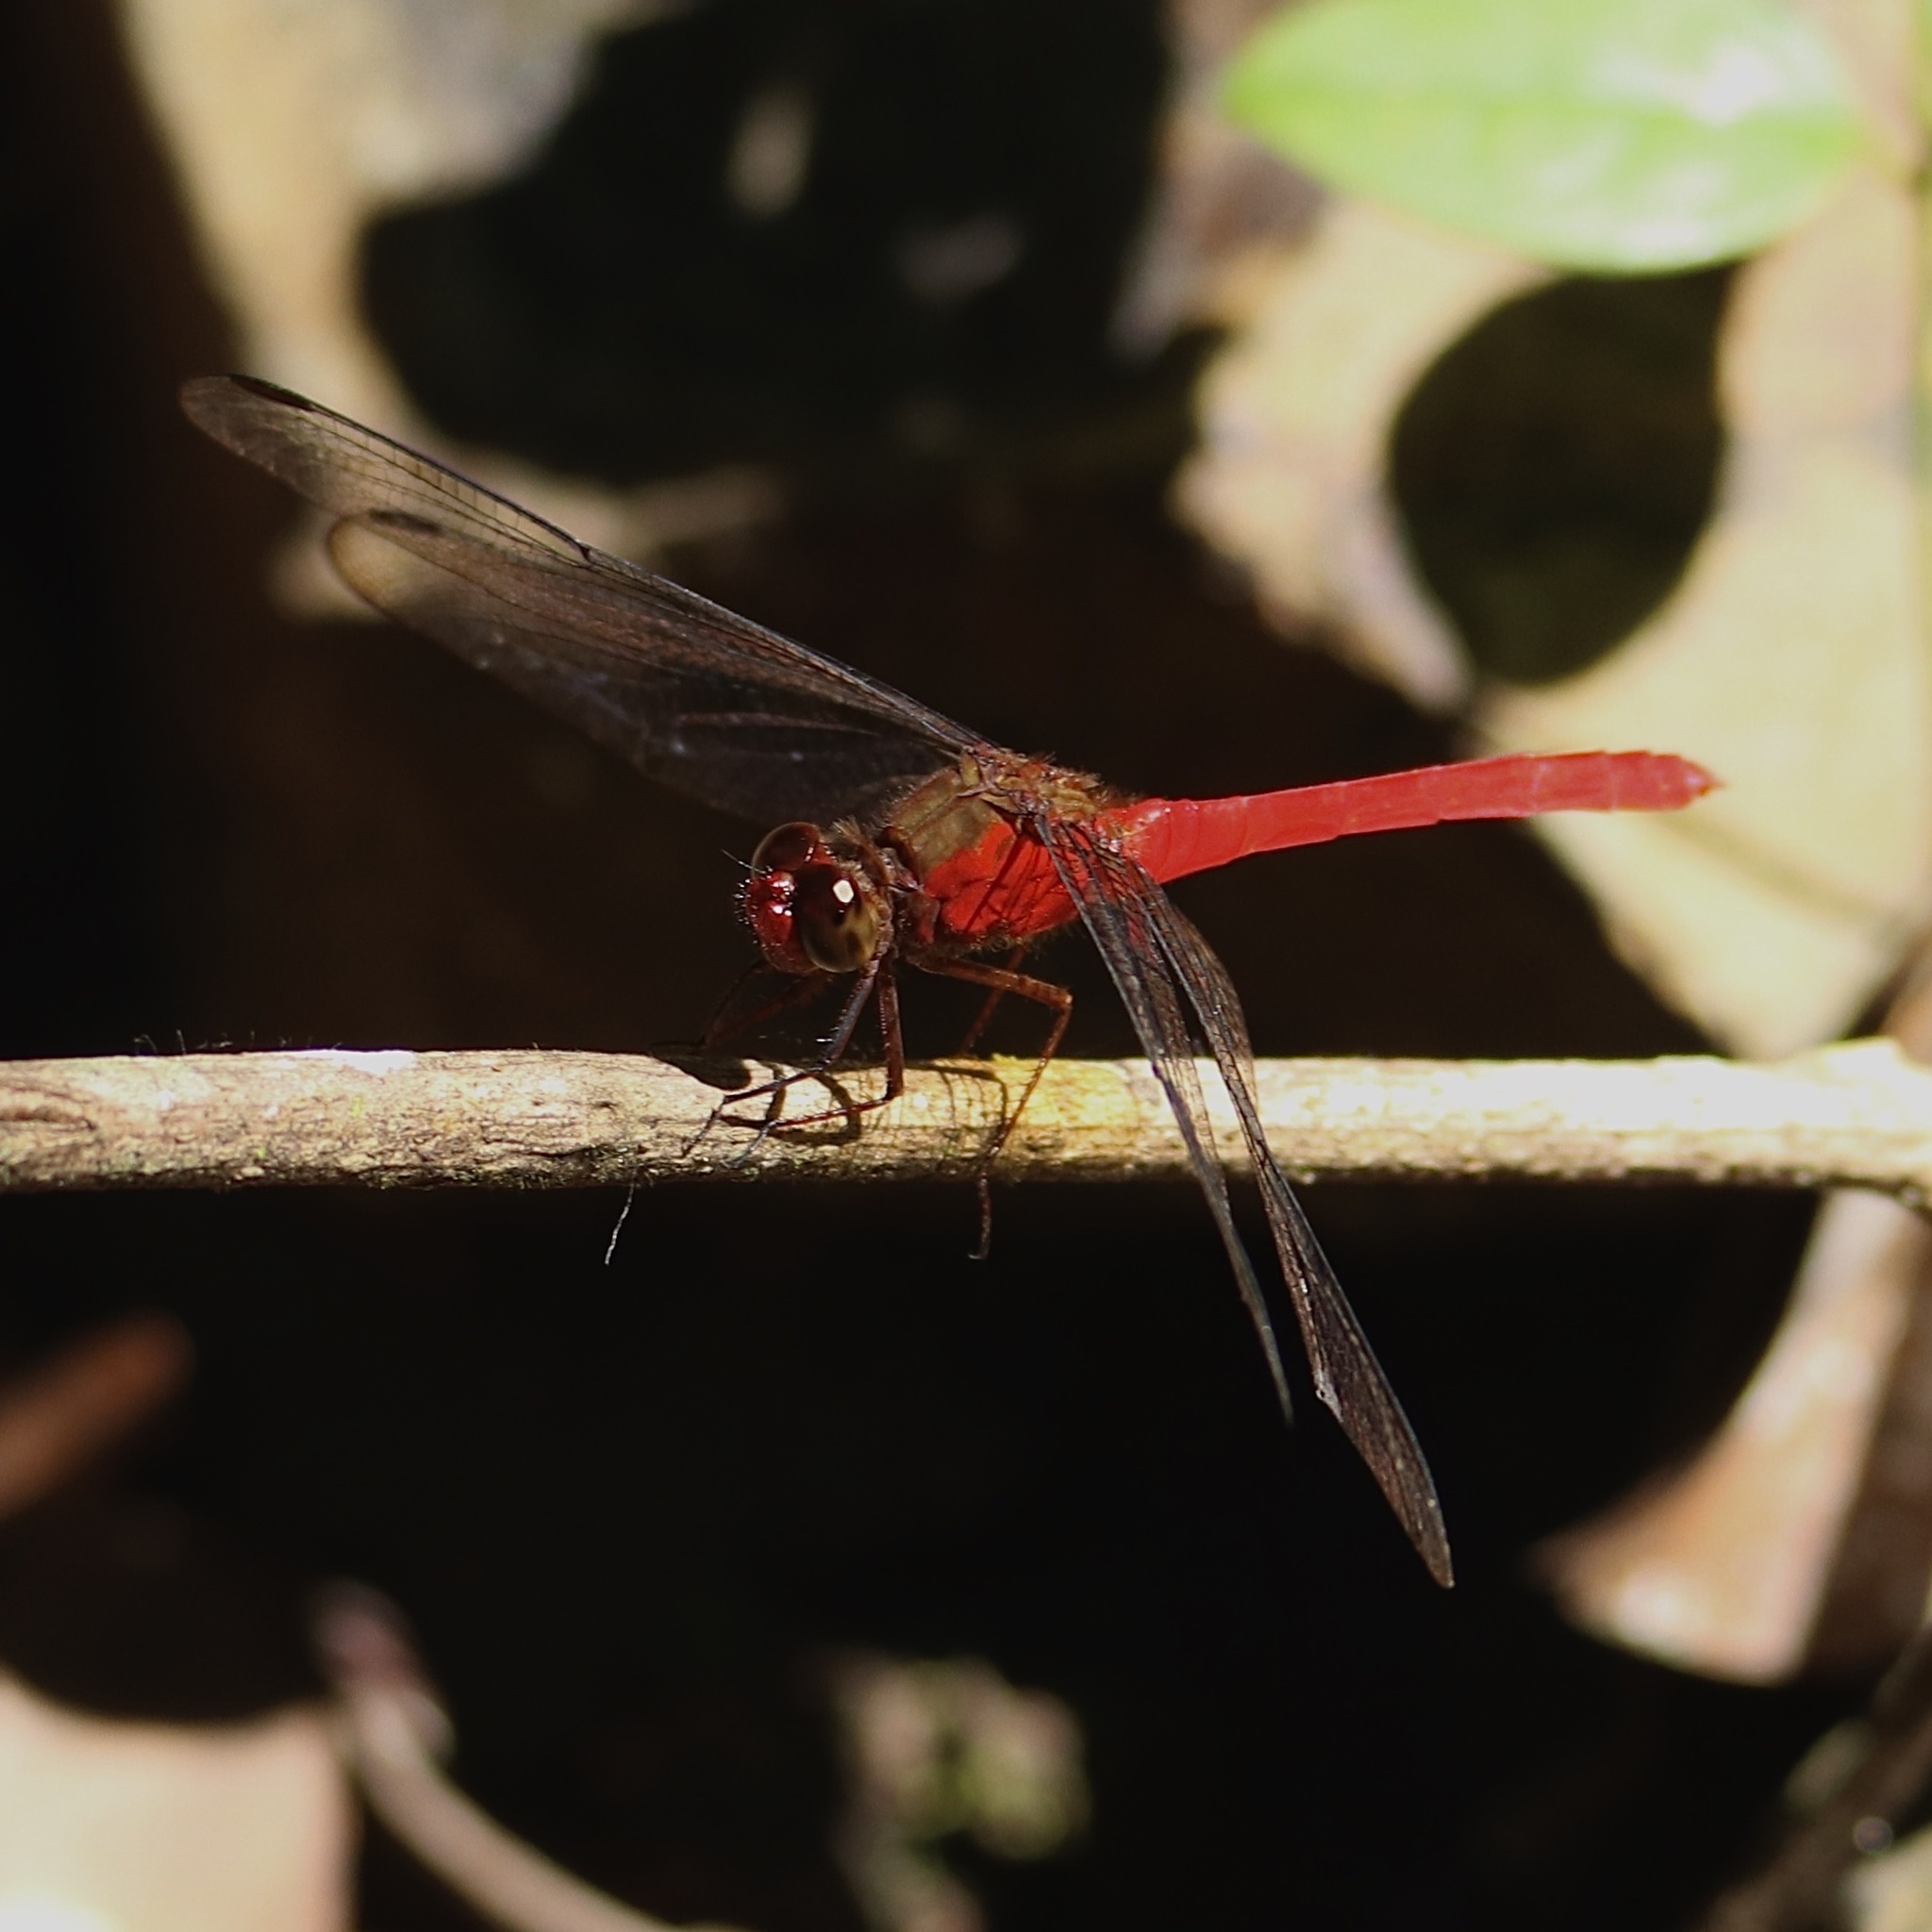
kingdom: Animalia
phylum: Arthropoda
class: Insecta
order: Odonata
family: Libellulidae
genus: Rhodopygia
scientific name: Rhodopygia hinei
